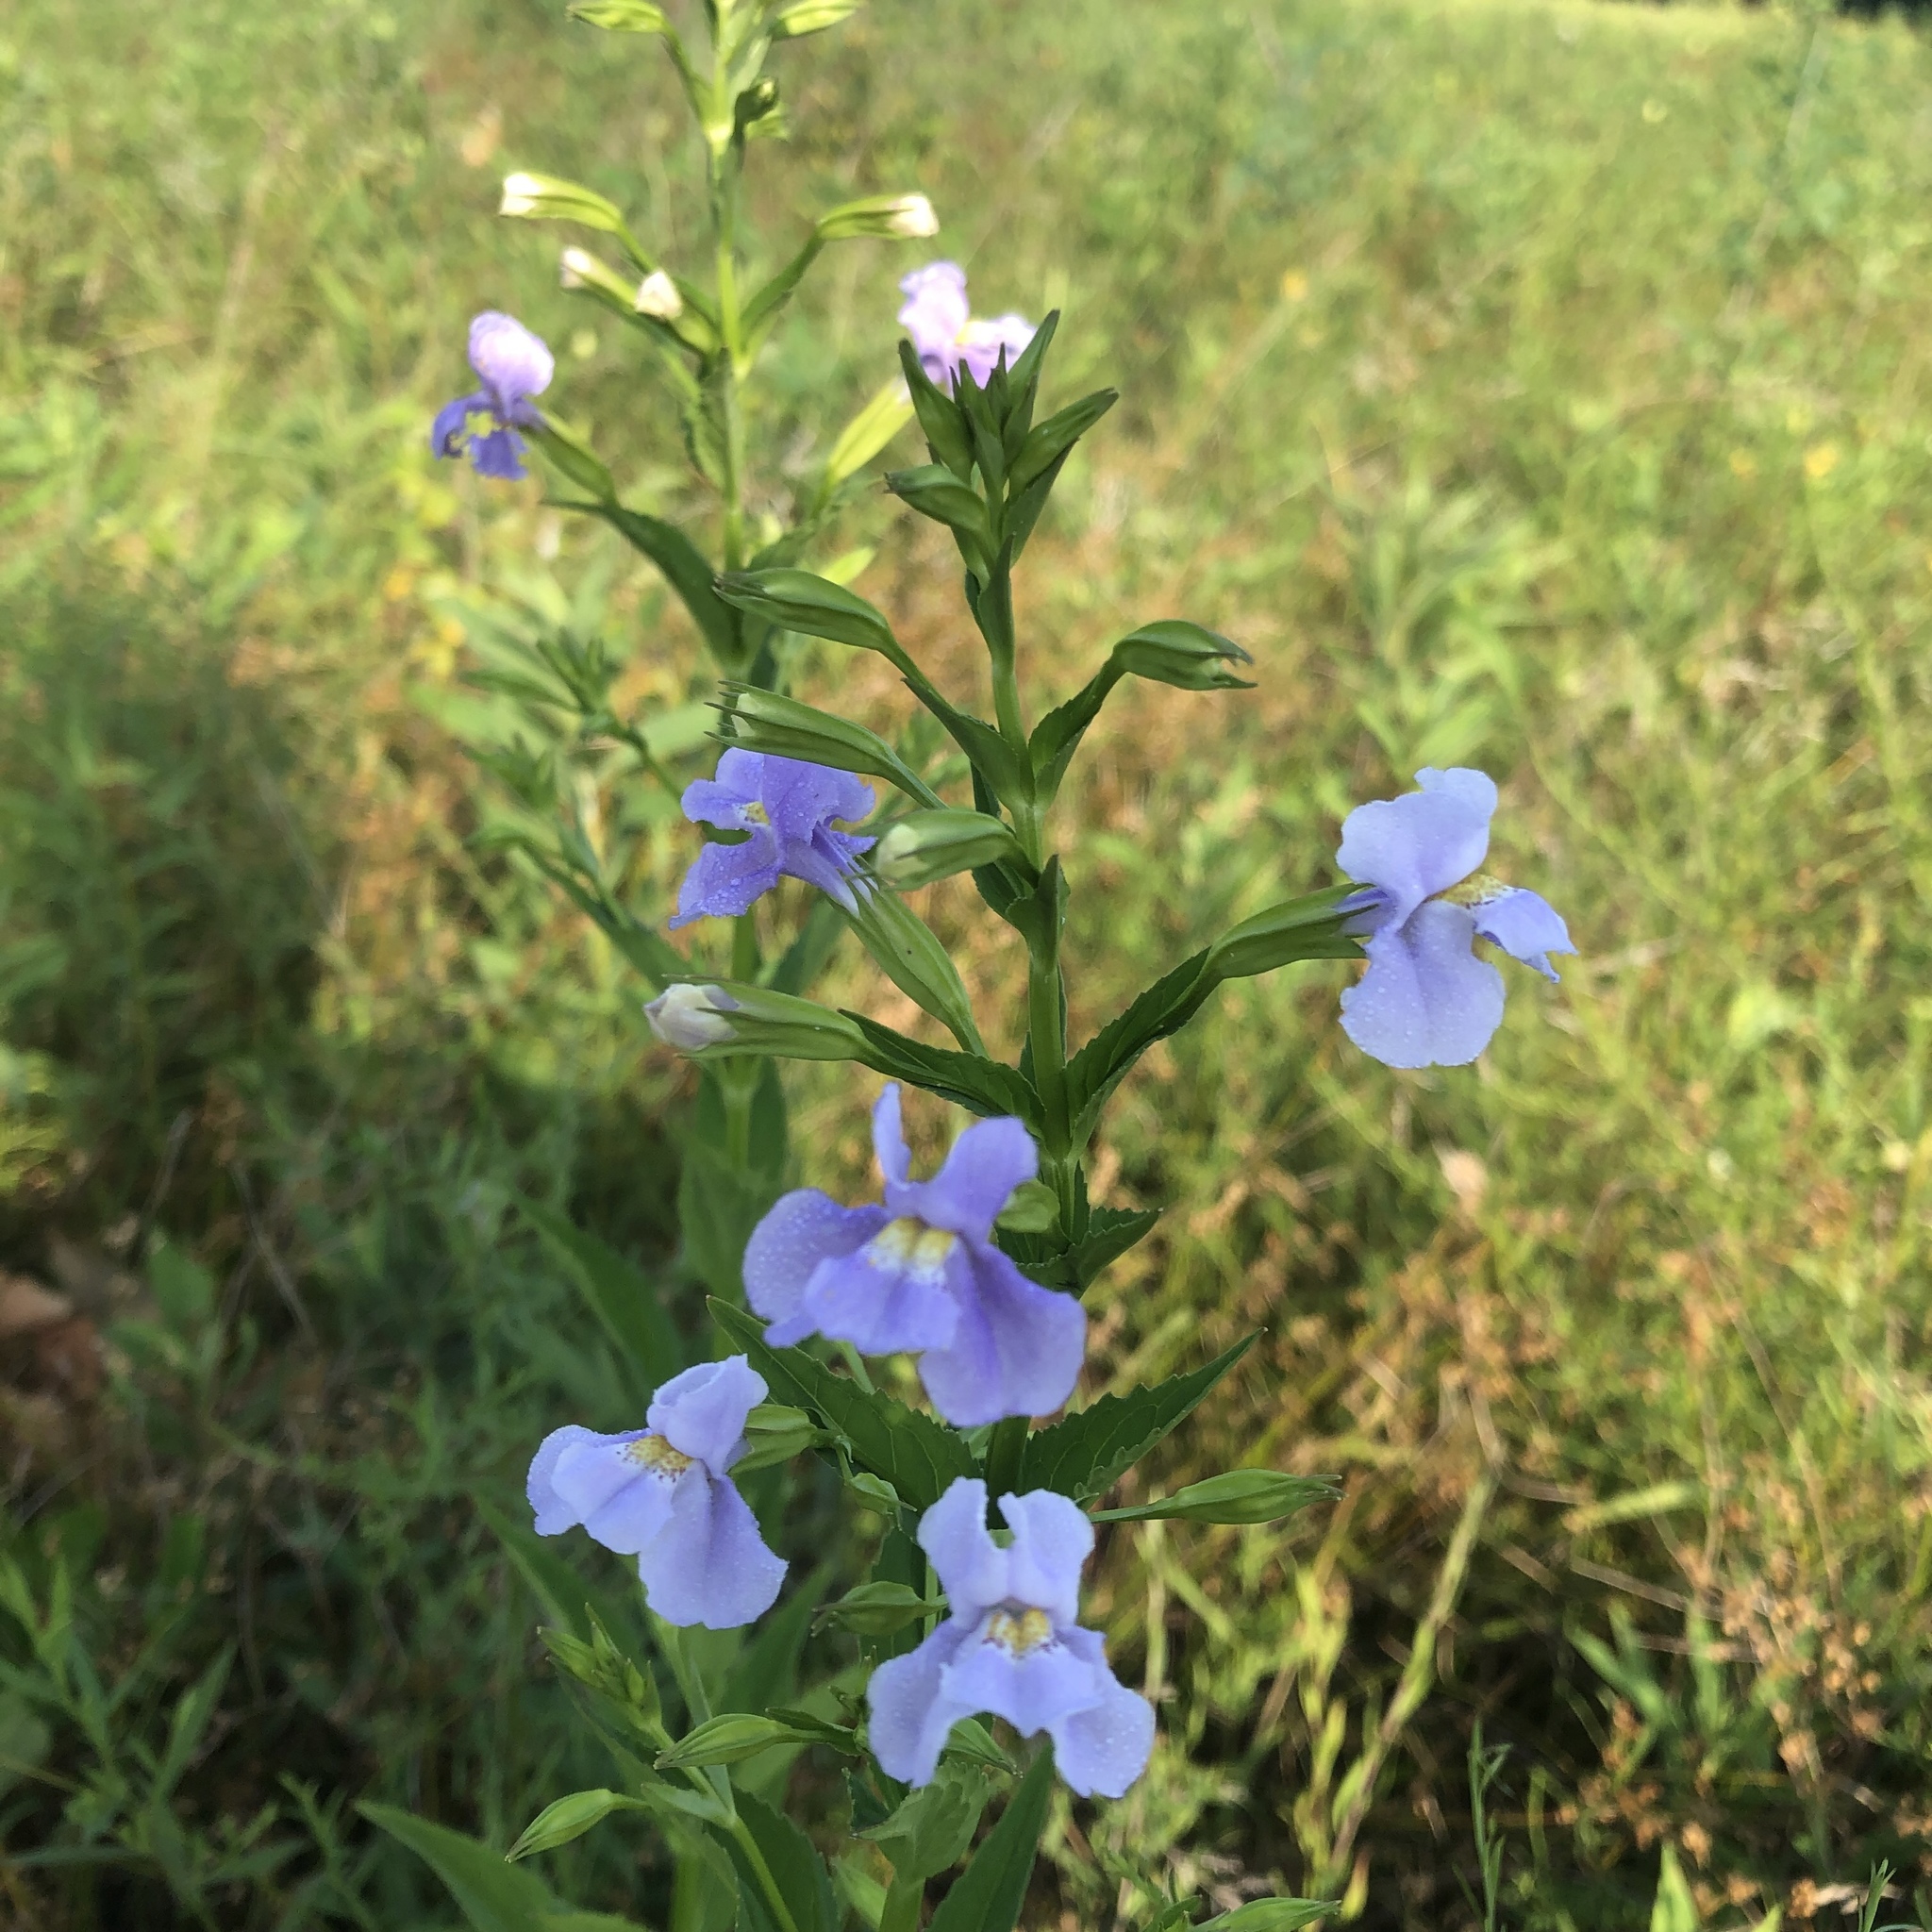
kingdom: Plantae
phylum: Tracheophyta
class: Magnoliopsida
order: Lamiales
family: Phrymaceae
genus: Mimulus
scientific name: Mimulus ringens
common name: Allegheny monkeyflower
